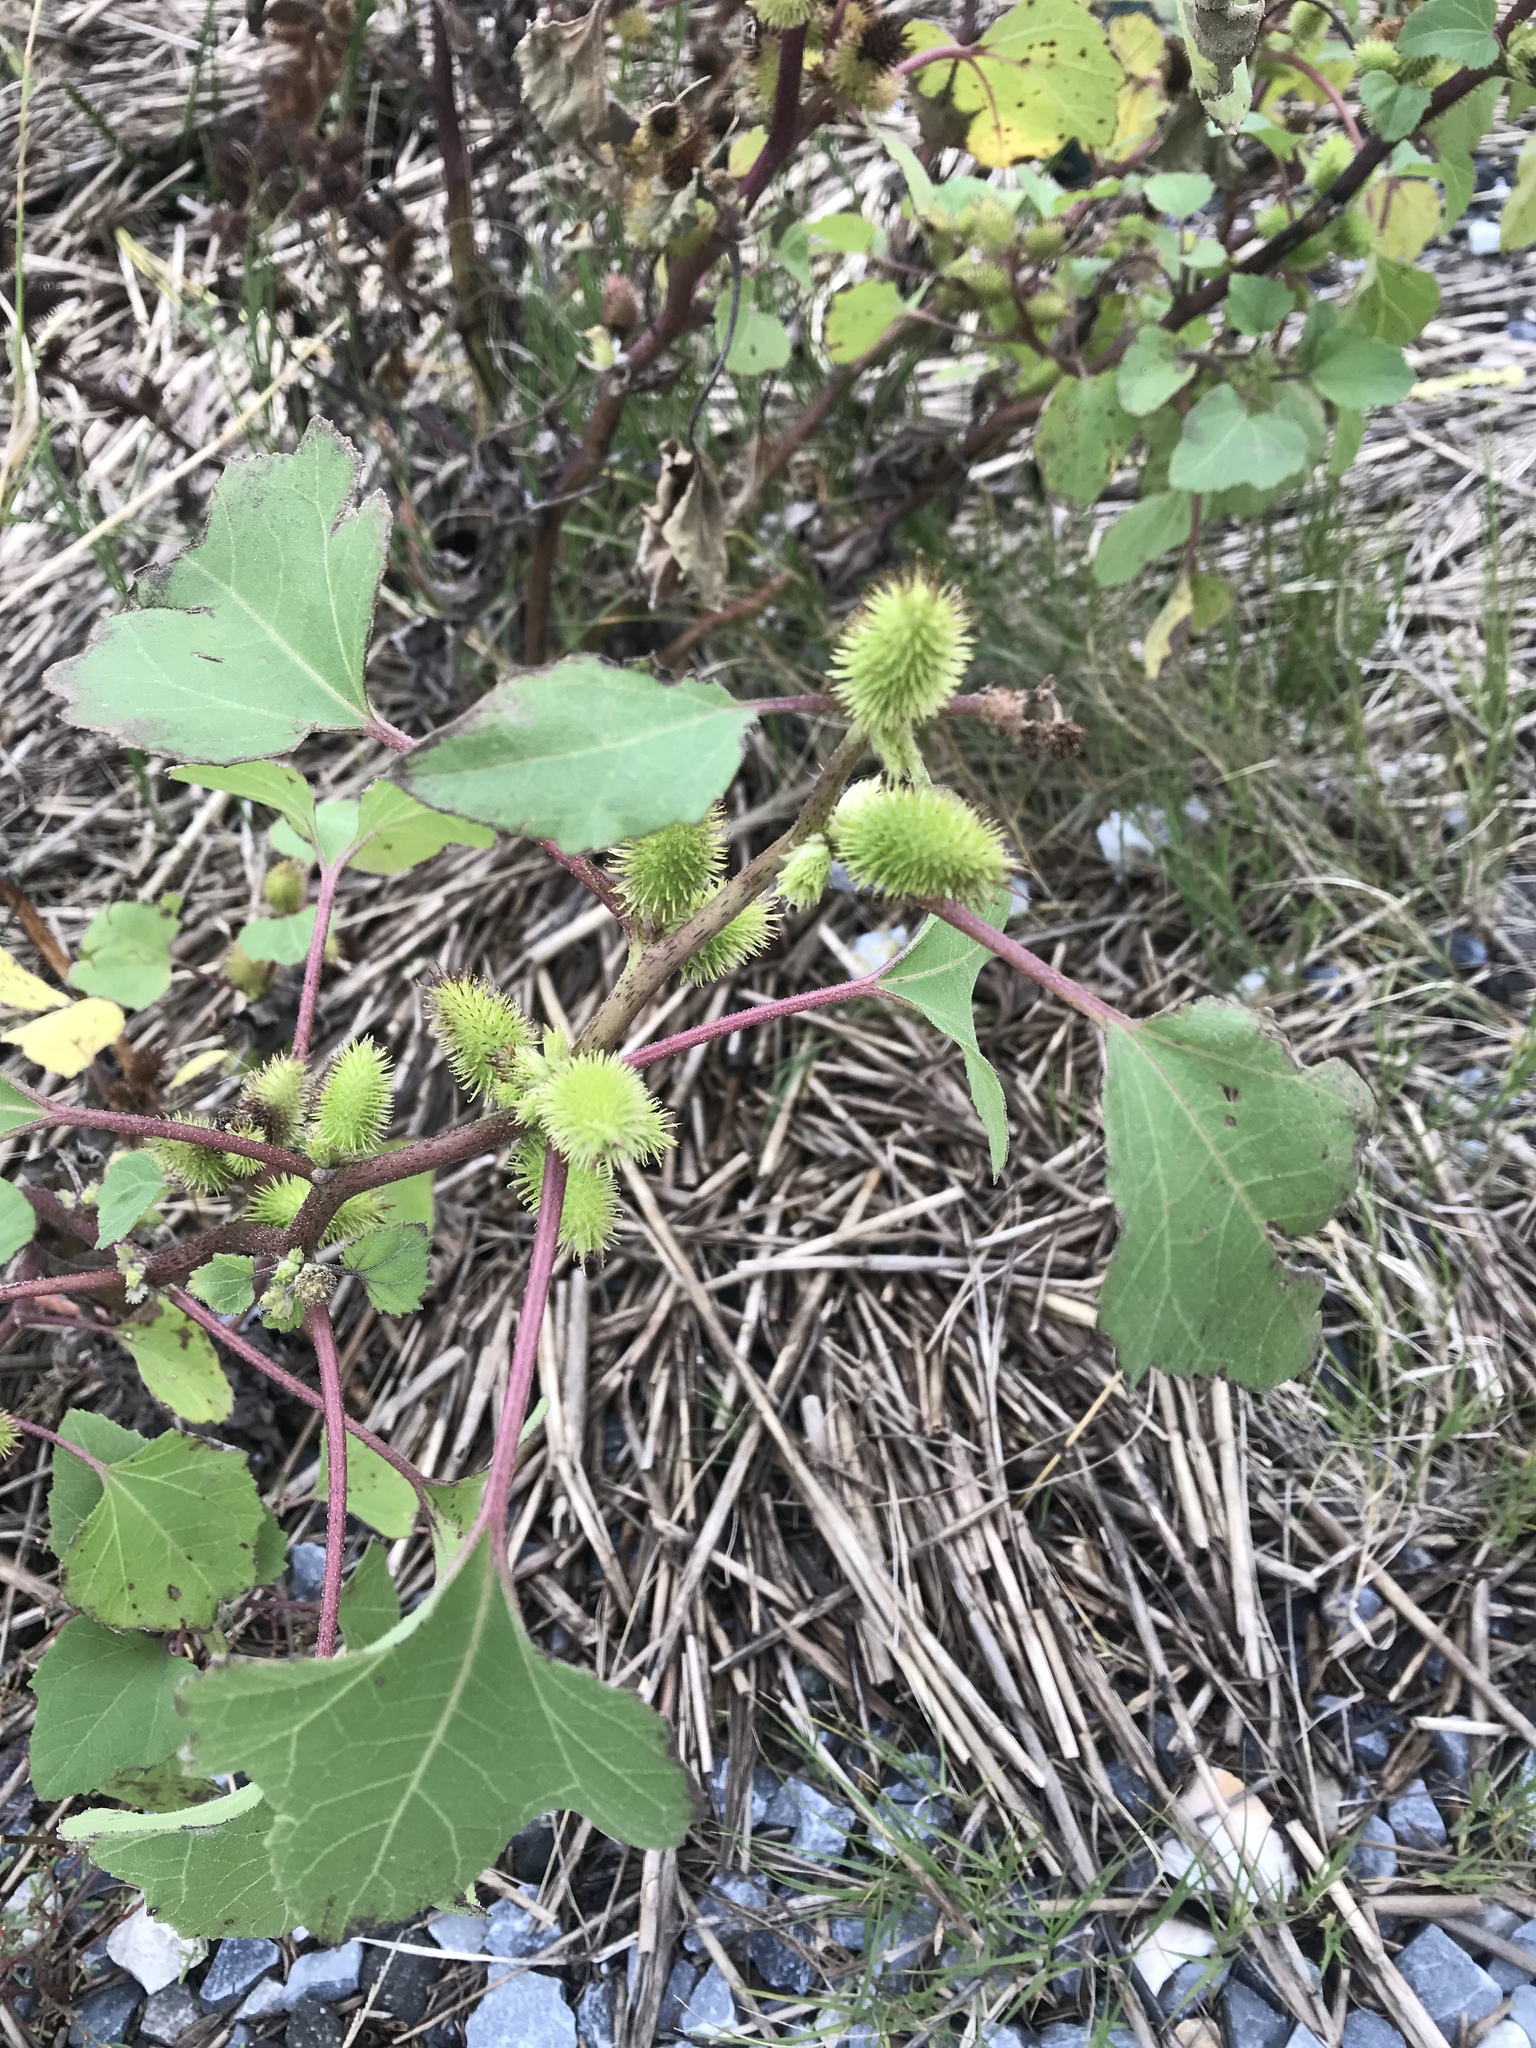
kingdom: Plantae
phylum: Tracheophyta
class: Magnoliopsida
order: Asterales
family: Asteraceae
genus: Xanthium
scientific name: Xanthium strumarium
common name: Rough cocklebur
